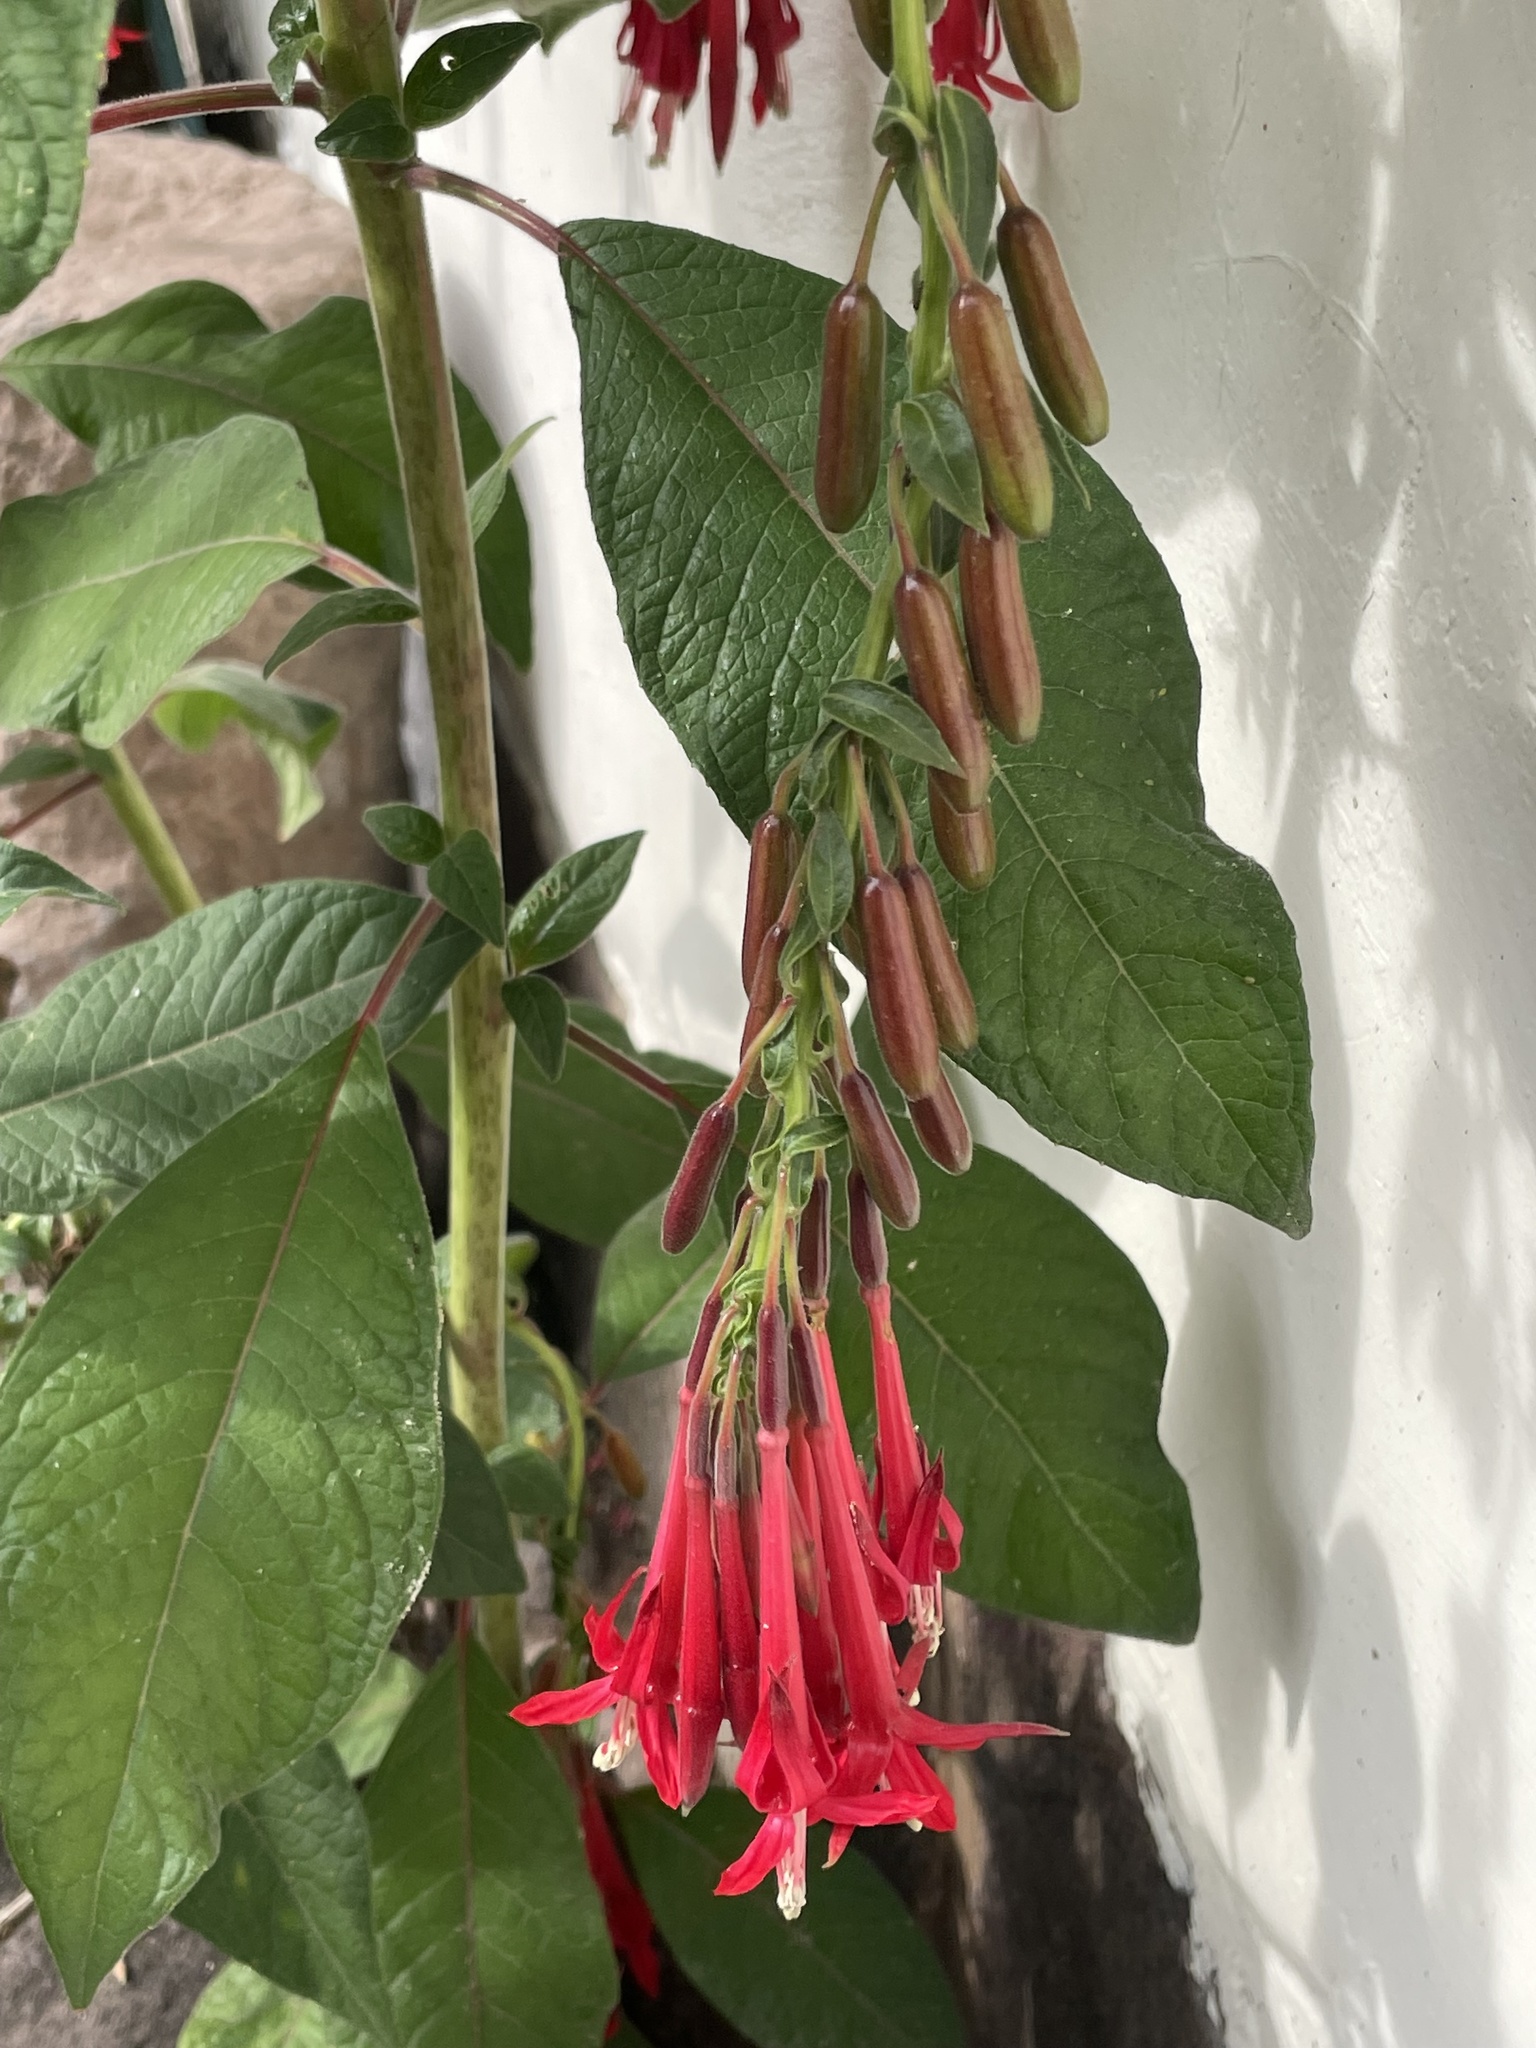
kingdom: Plantae
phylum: Tracheophyta
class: Magnoliopsida
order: Myrtales
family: Onagraceae
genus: Fuchsia
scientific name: Fuchsia boliviana
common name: Bolivian fuchsia
